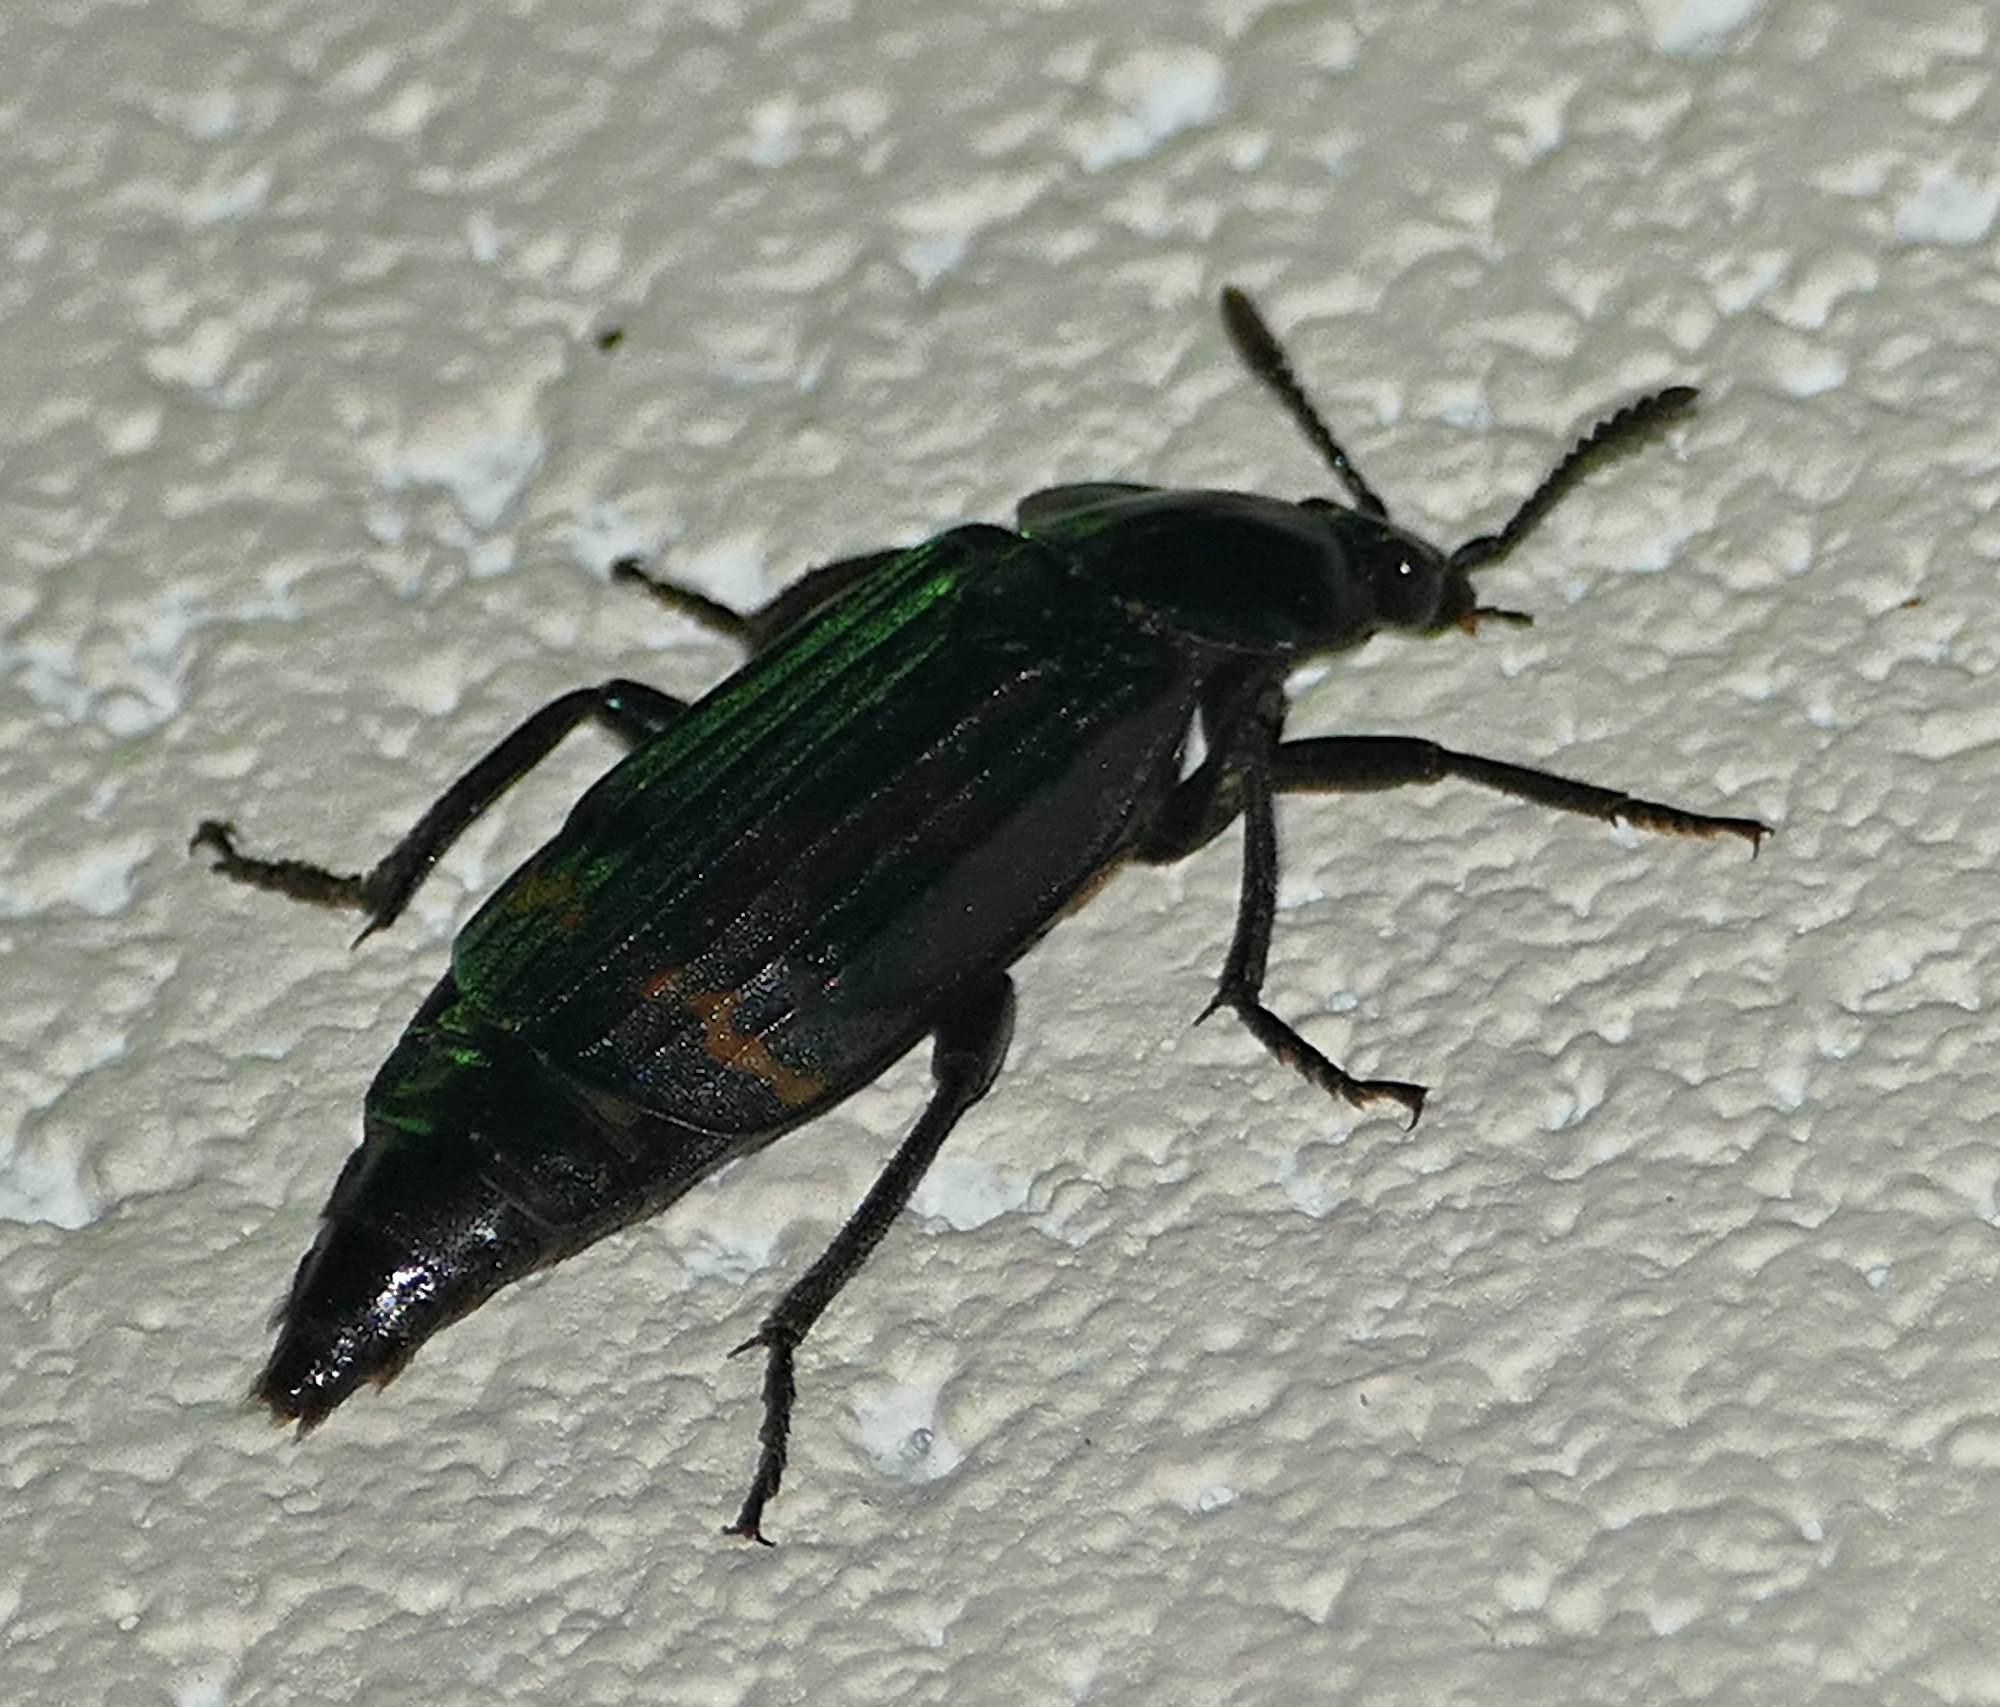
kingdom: Animalia
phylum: Arthropoda
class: Insecta
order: Coleoptera
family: Staphylinidae
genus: Necrodes
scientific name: Necrodes surinamensis
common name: Red-lined carrion beetle
